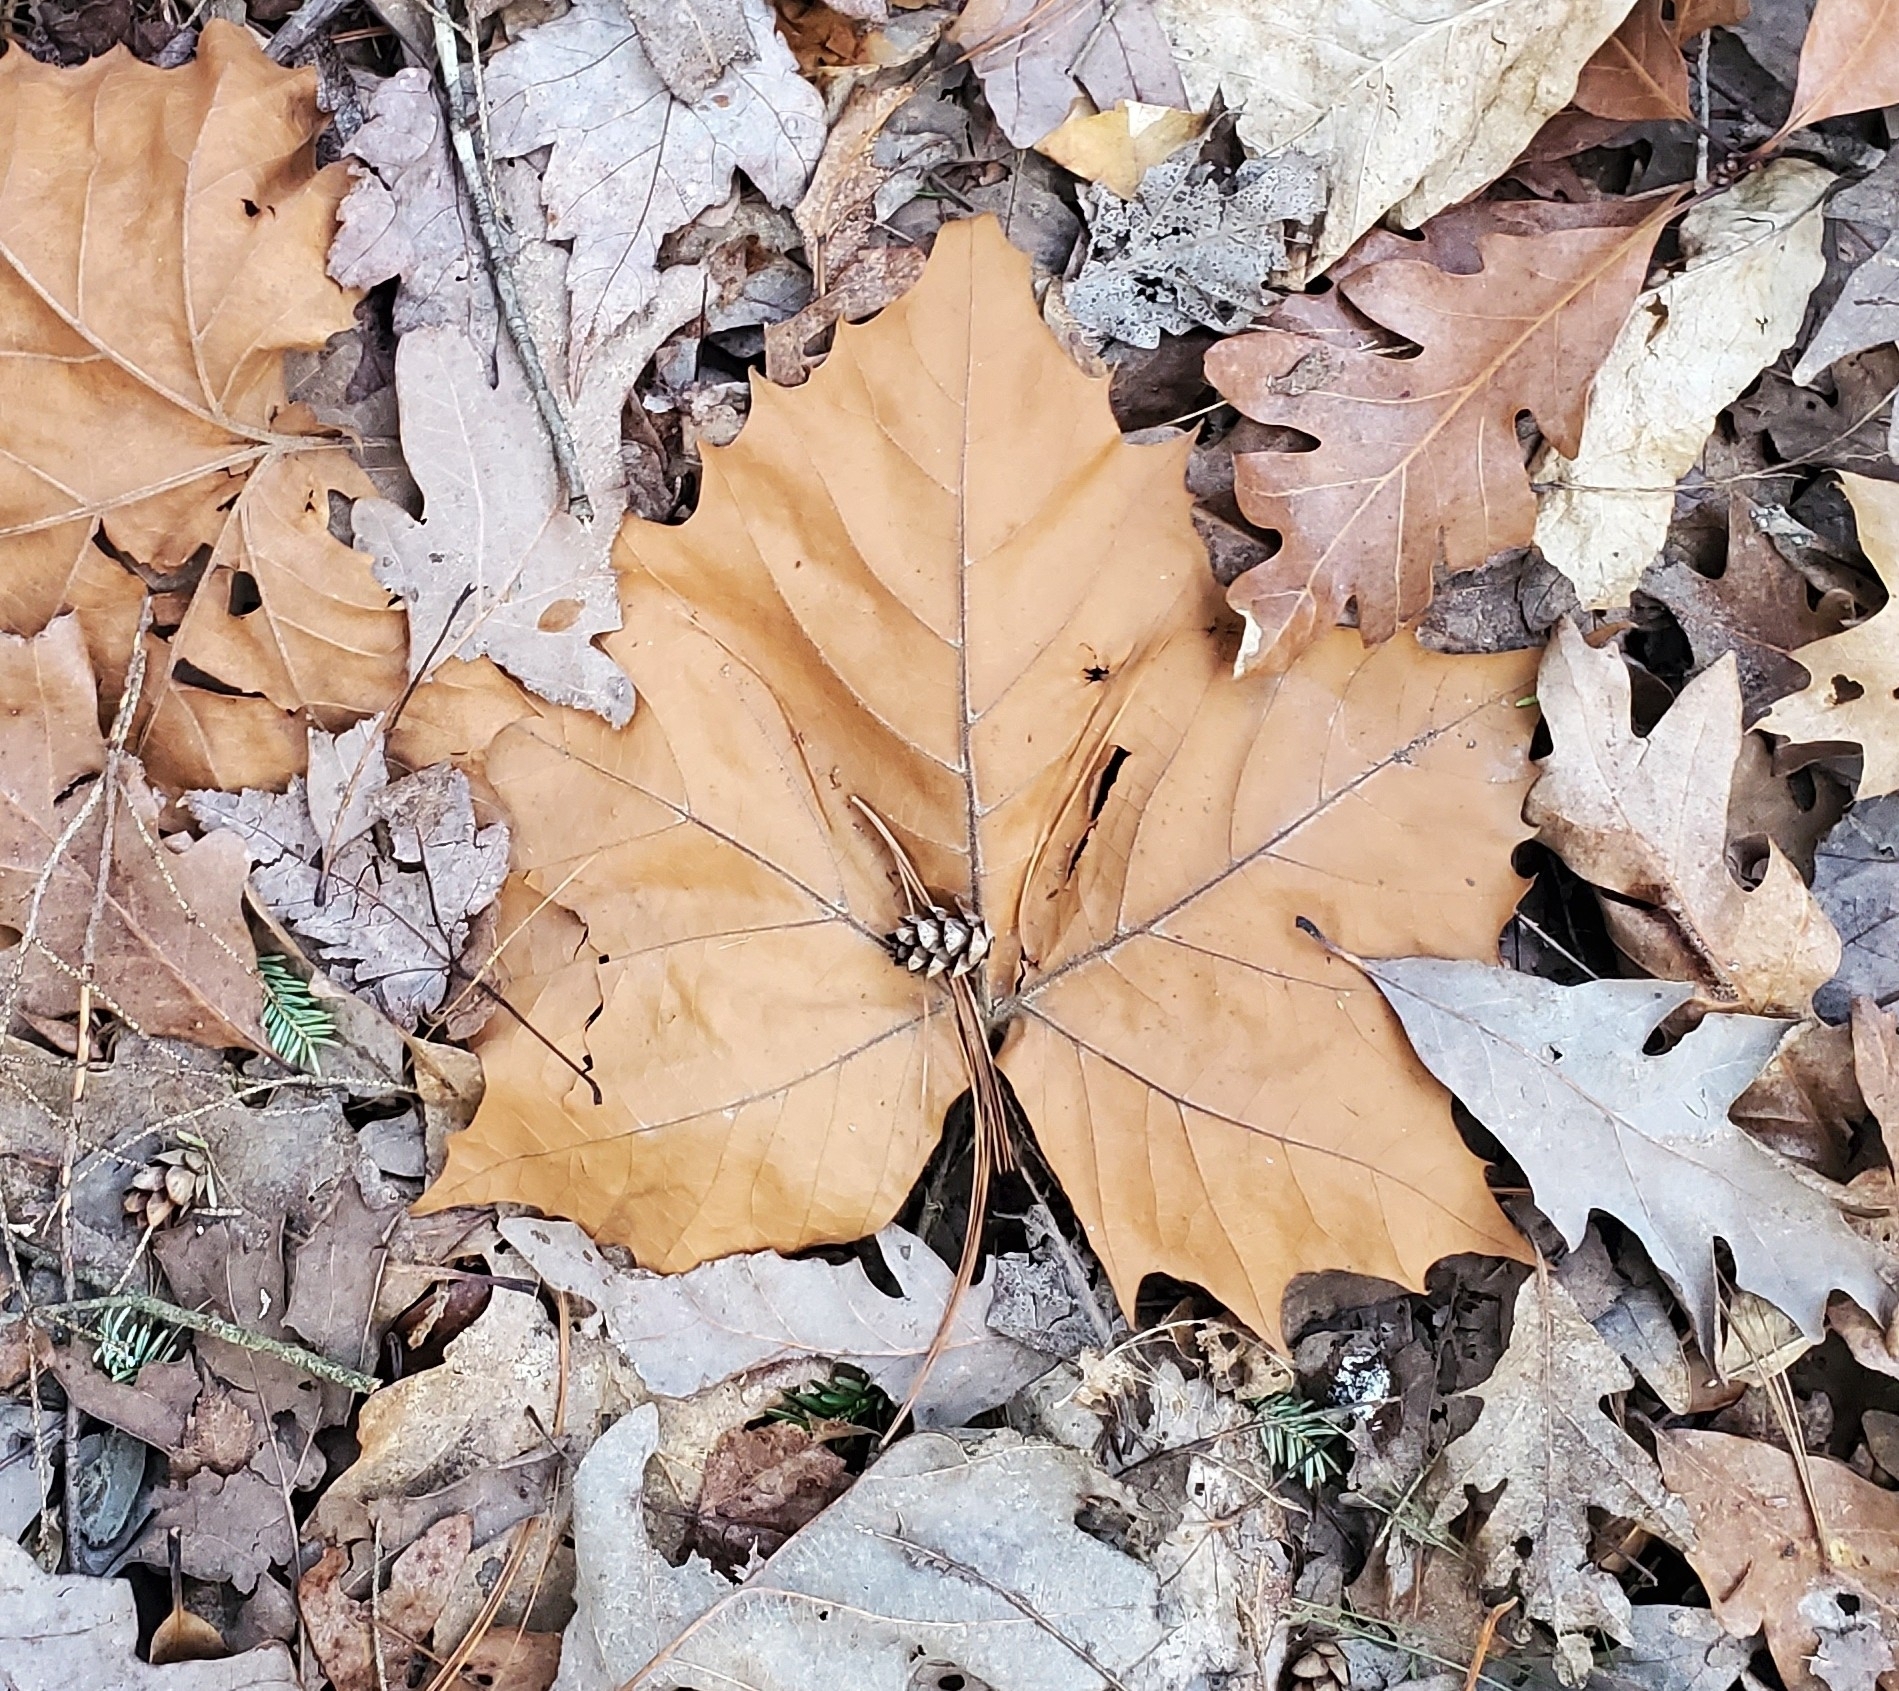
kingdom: Plantae
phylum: Tracheophyta
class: Magnoliopsida
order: Proteales
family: Platanaceae
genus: Platanus
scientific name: Platanus occidentalis
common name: American sycamore
